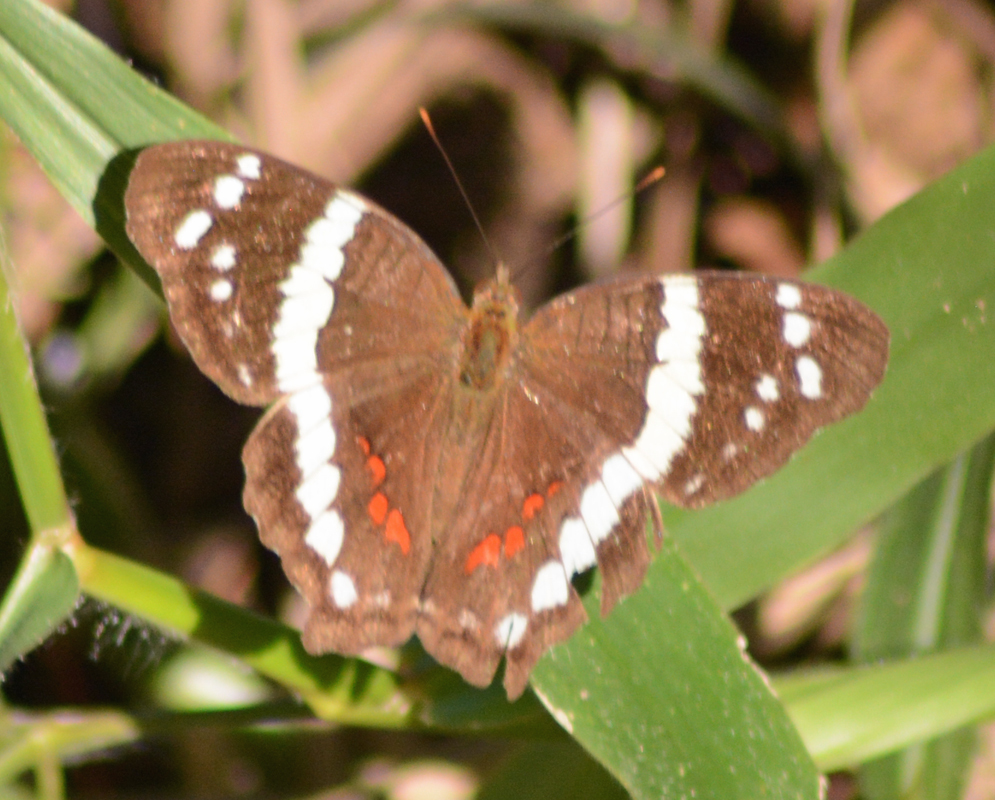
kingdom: Animalia
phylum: Arthropoda
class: Insecta
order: Lepidoptera
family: Nymphalidae
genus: Anartia
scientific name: Anartia fatima
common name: Banded peacock
